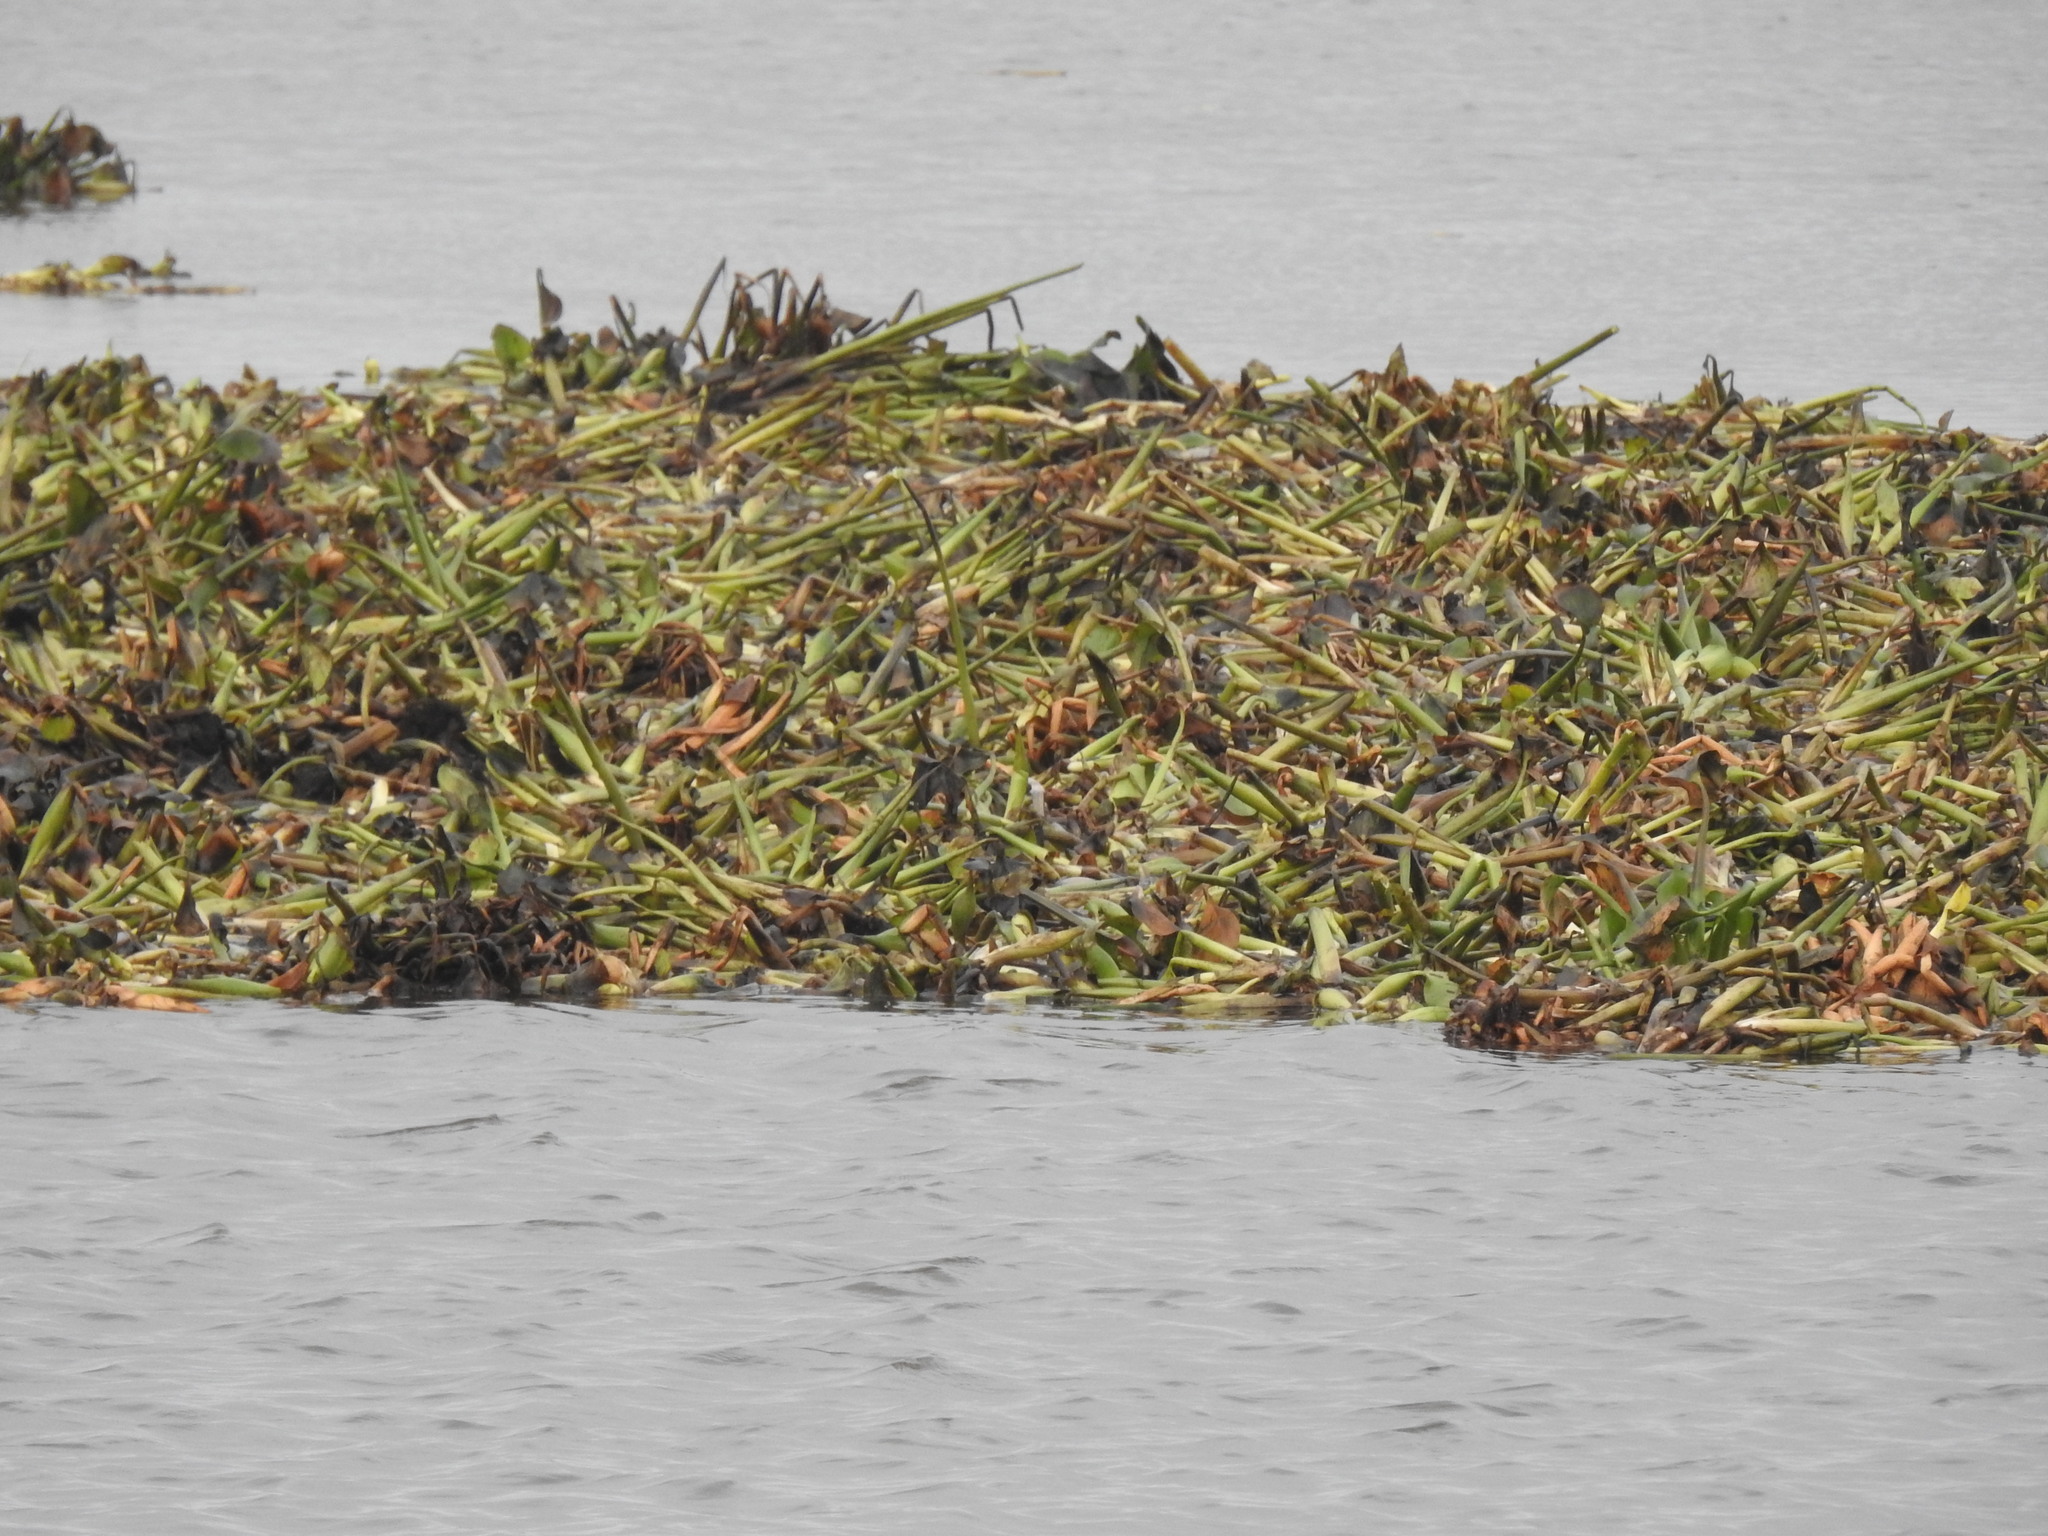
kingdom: Plantae
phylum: Tracheophyta
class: Liliopsida
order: Commelinales
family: Pontederiaceae
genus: Pontederia
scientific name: Pontederia crassipes
